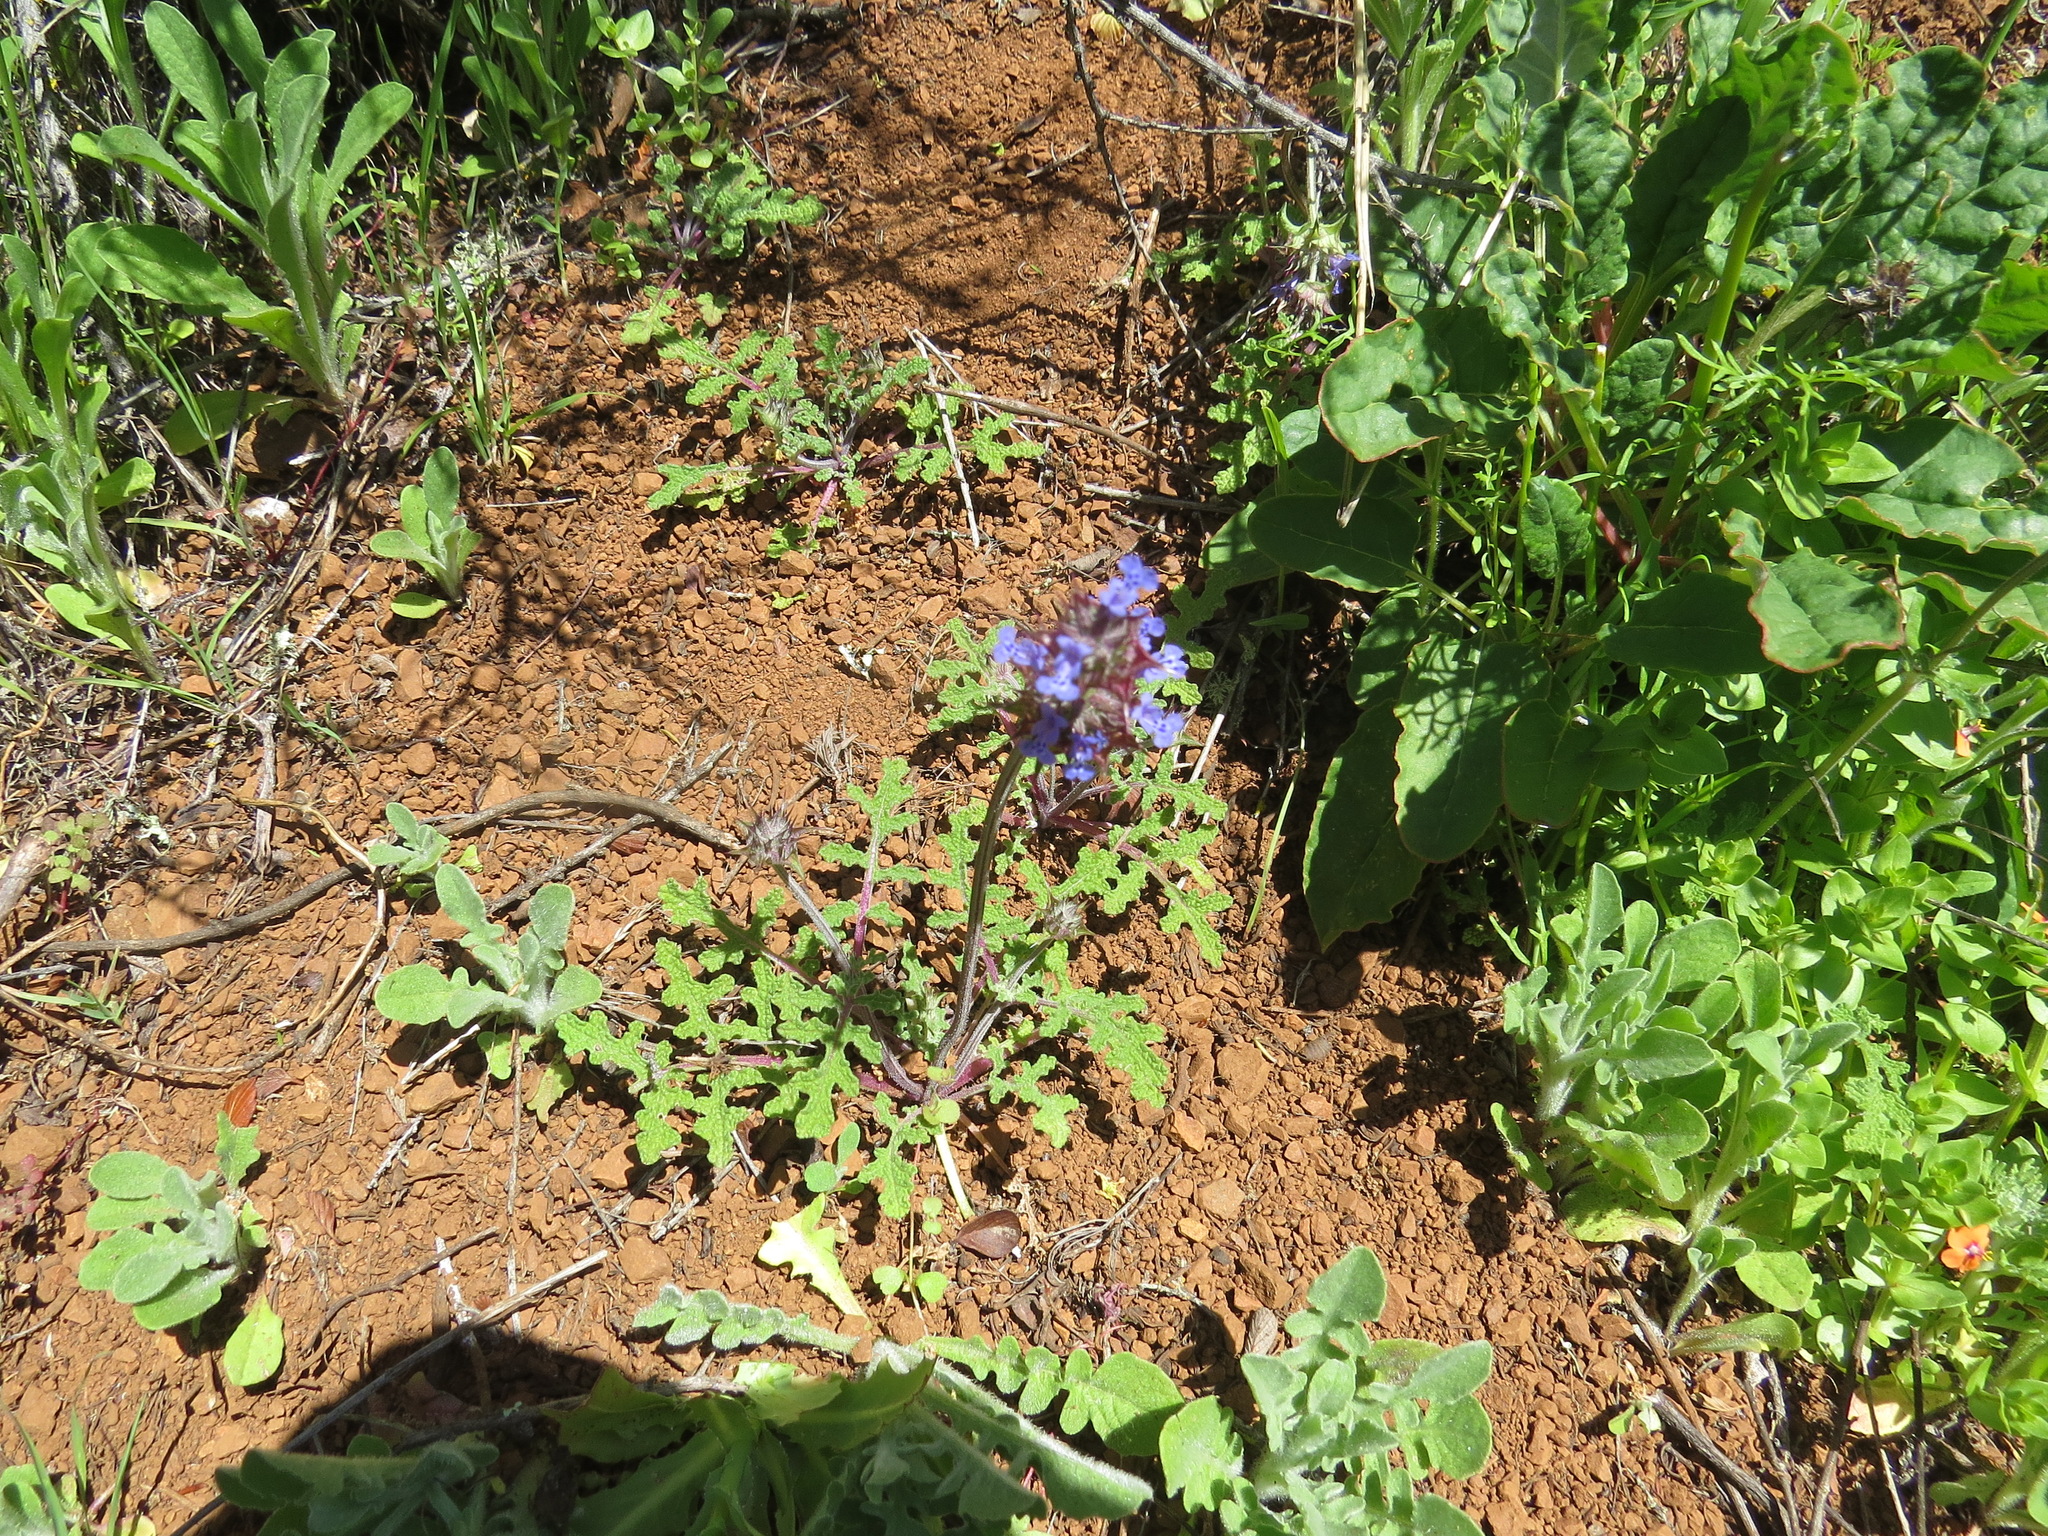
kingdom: Plantae
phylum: Tracheophyta
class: Magnoliopsida
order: Lamiales
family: Lamiaceae
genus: Salvia
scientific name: Salvia columbariae
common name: Chia
